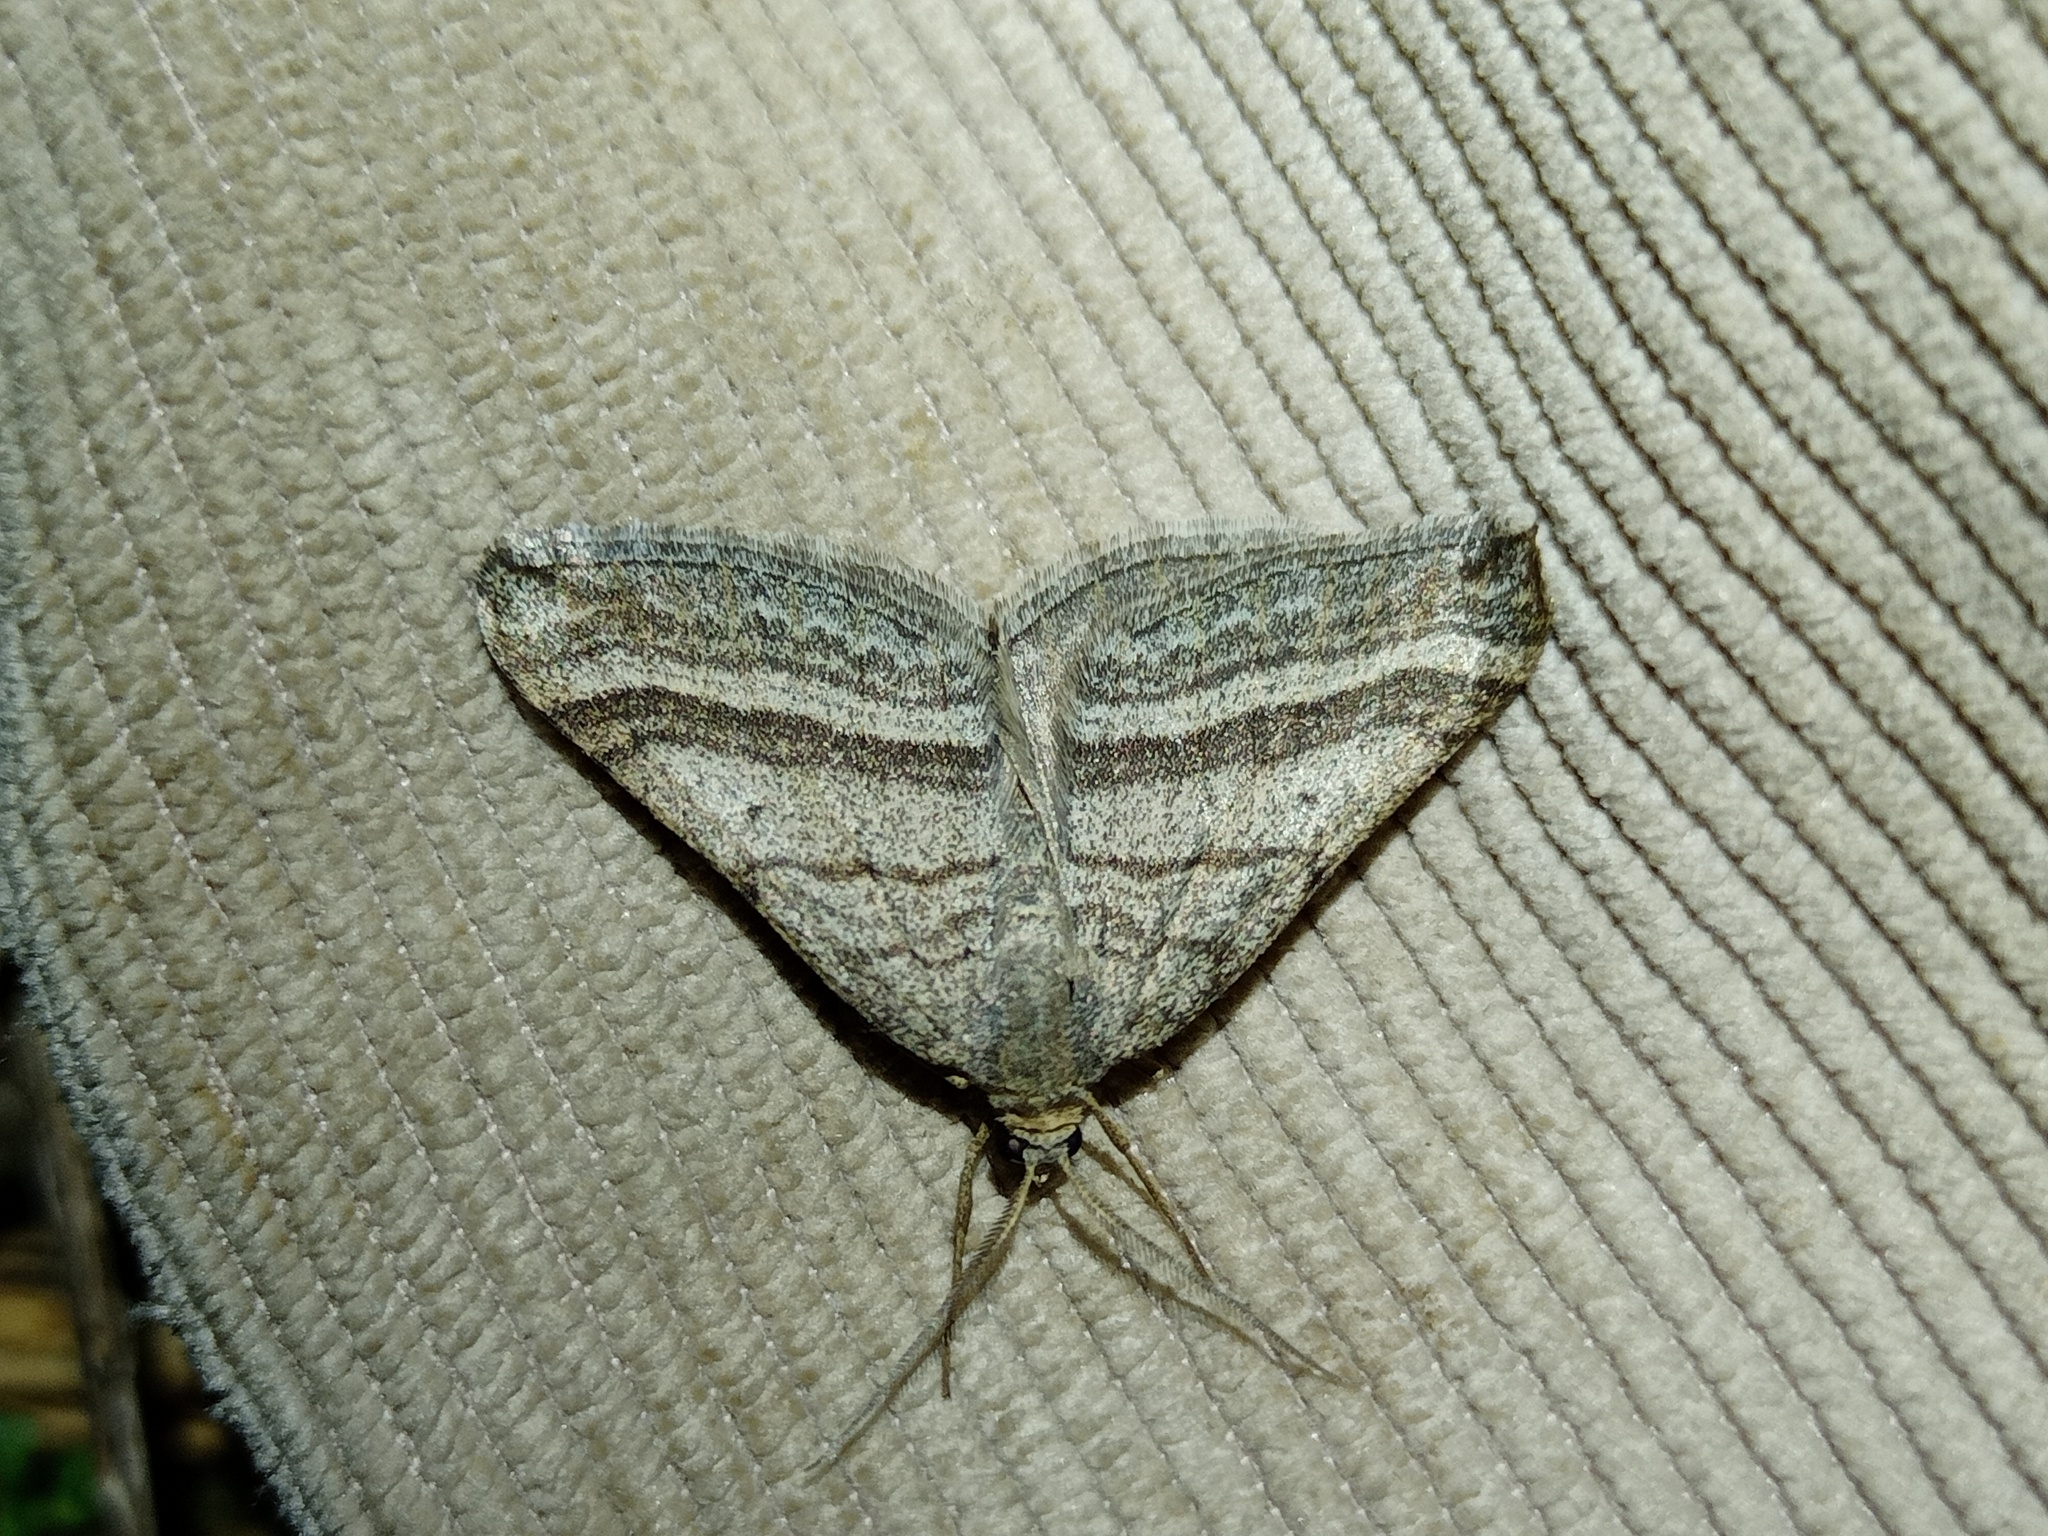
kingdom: Animalia
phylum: Arthropoda
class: Insecta
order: Lepidoptera
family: Geometridae
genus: Scotopteryx
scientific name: Scotopteryx coarctaria
